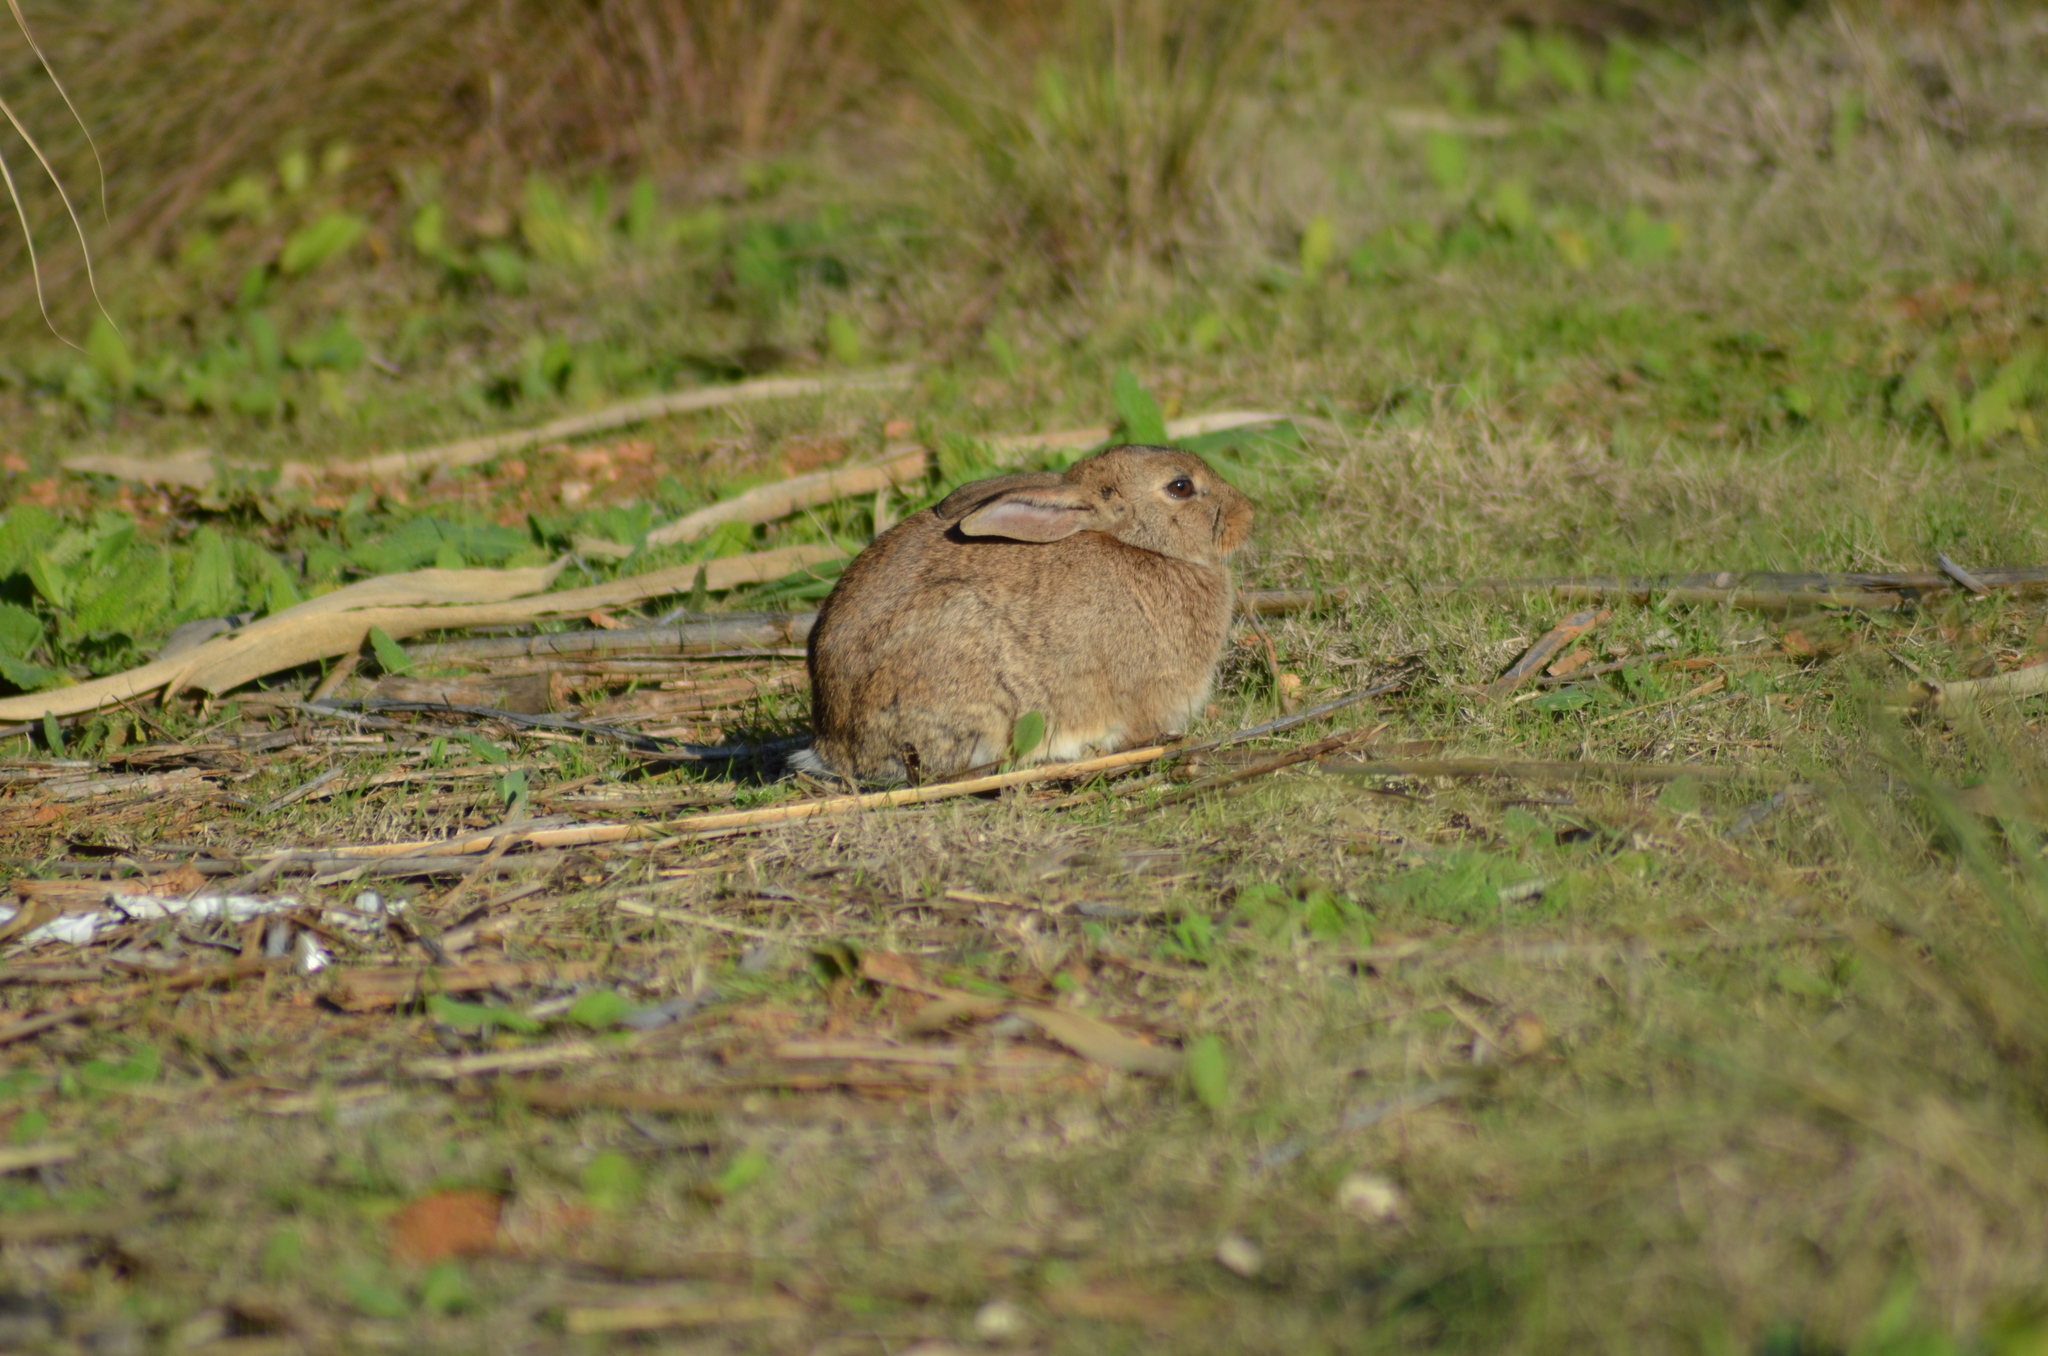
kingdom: Animalia
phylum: Chordata
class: Mammalia
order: Lagomorpha
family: Leporidae
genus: Oryctolagus
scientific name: Oryctolagus cuniculus
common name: European rabbit
